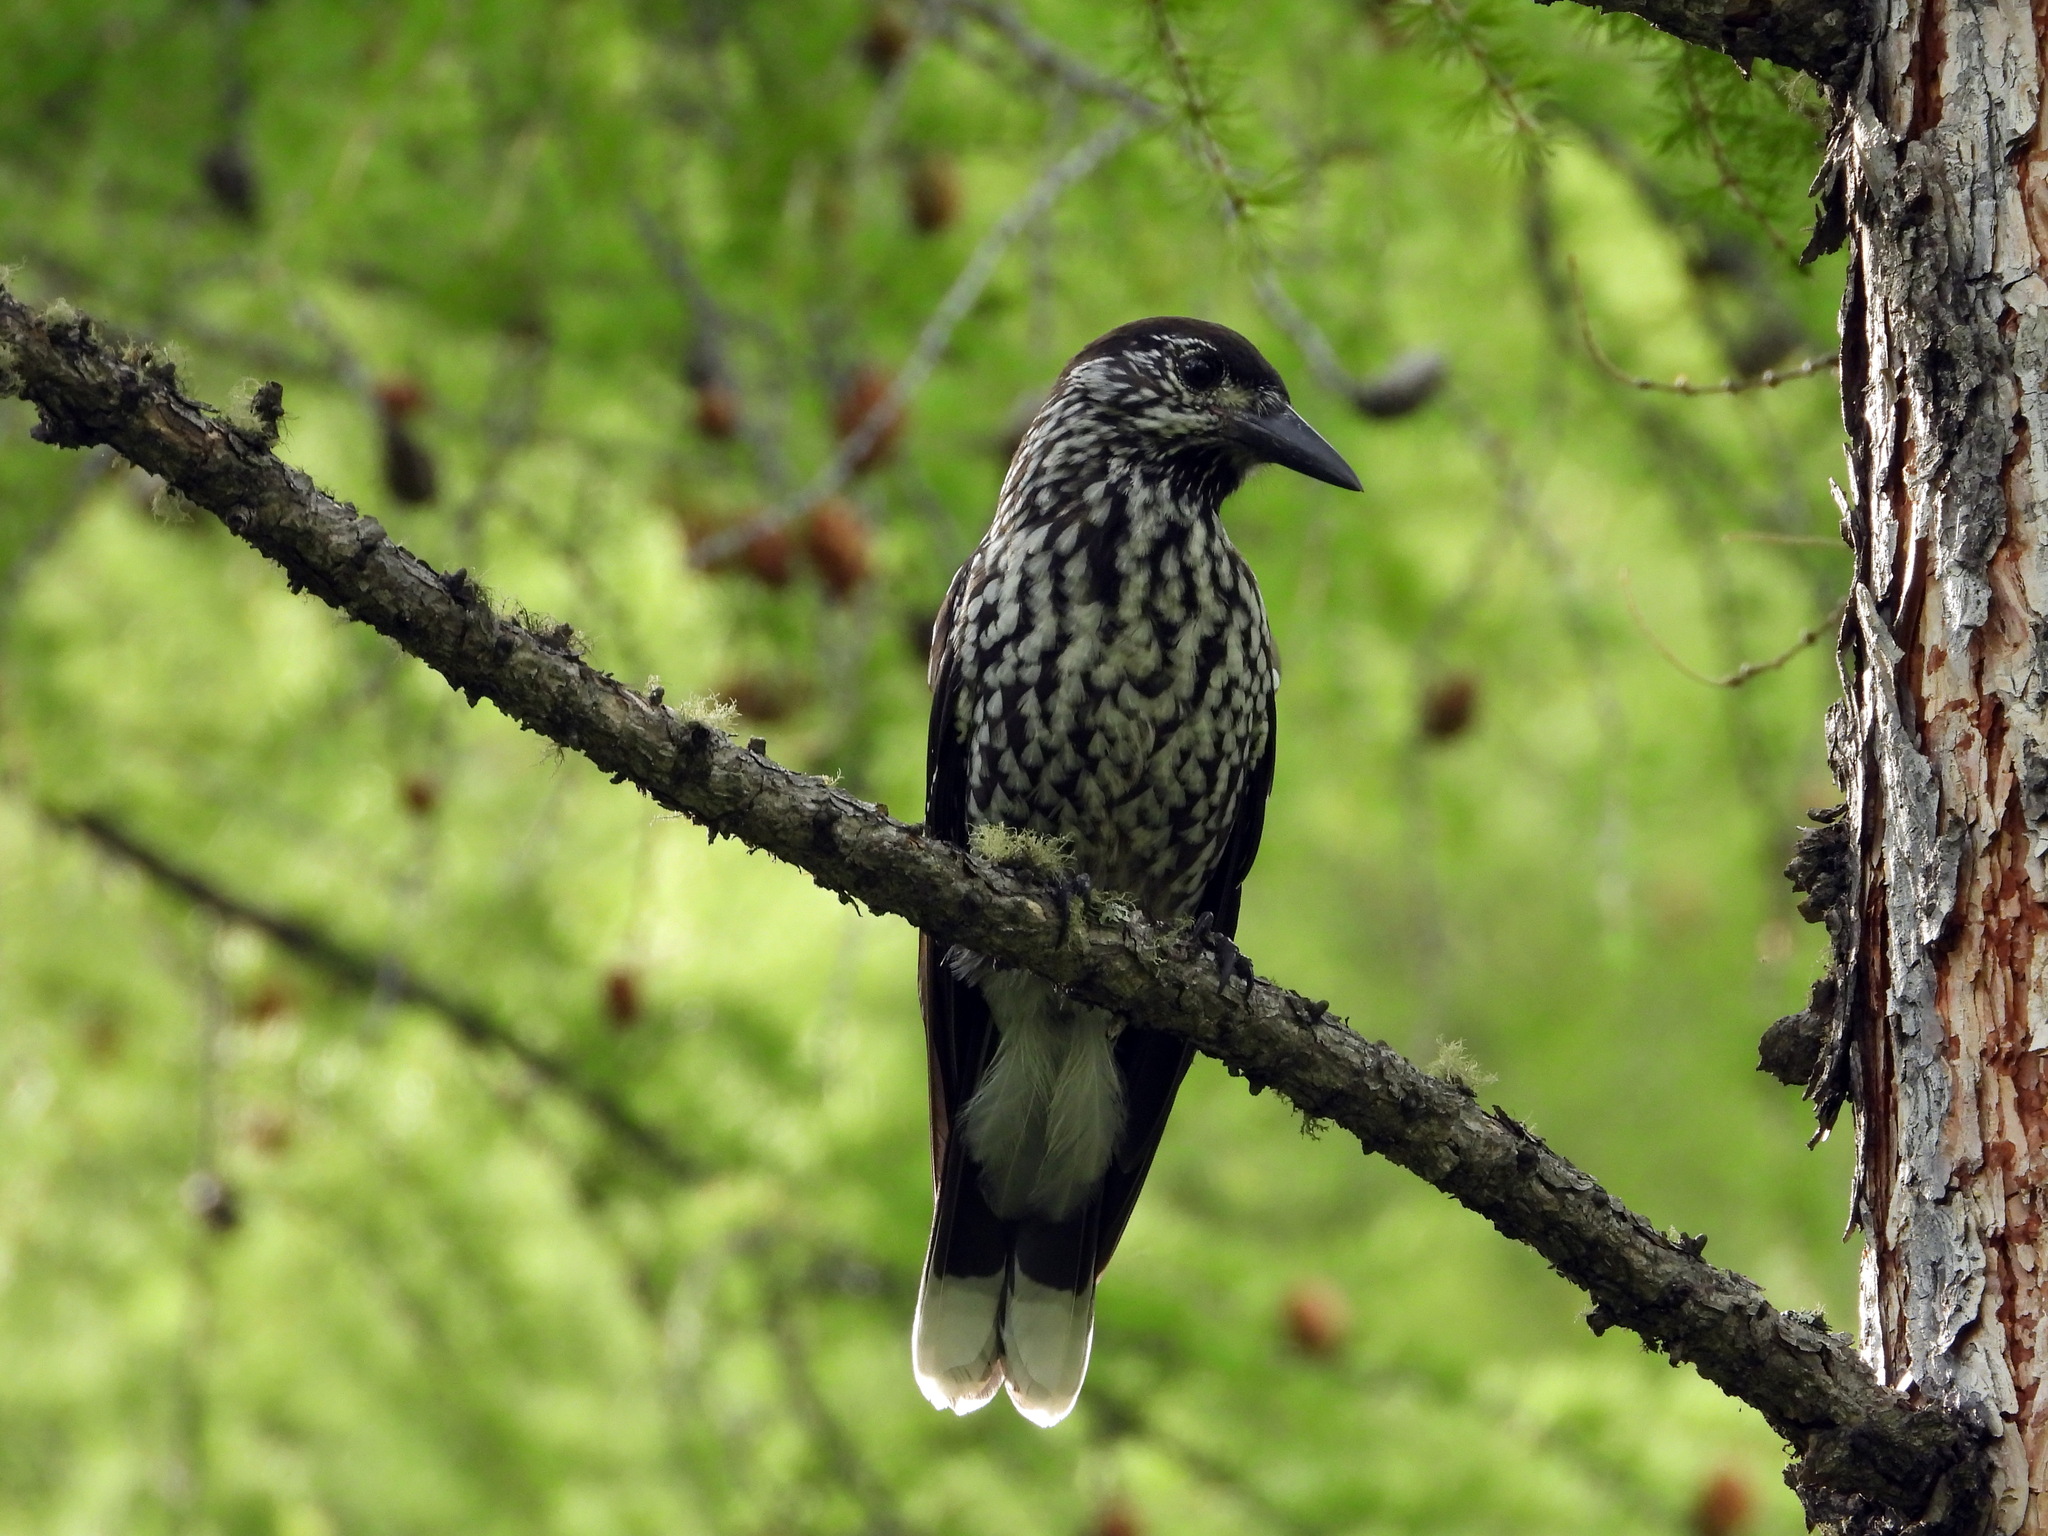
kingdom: Animalia
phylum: Chordata
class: Aves
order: Passeriformes
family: Corvidae
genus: Nucifraga
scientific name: Nucifraga caryocatactes
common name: Spotted nutcracker
